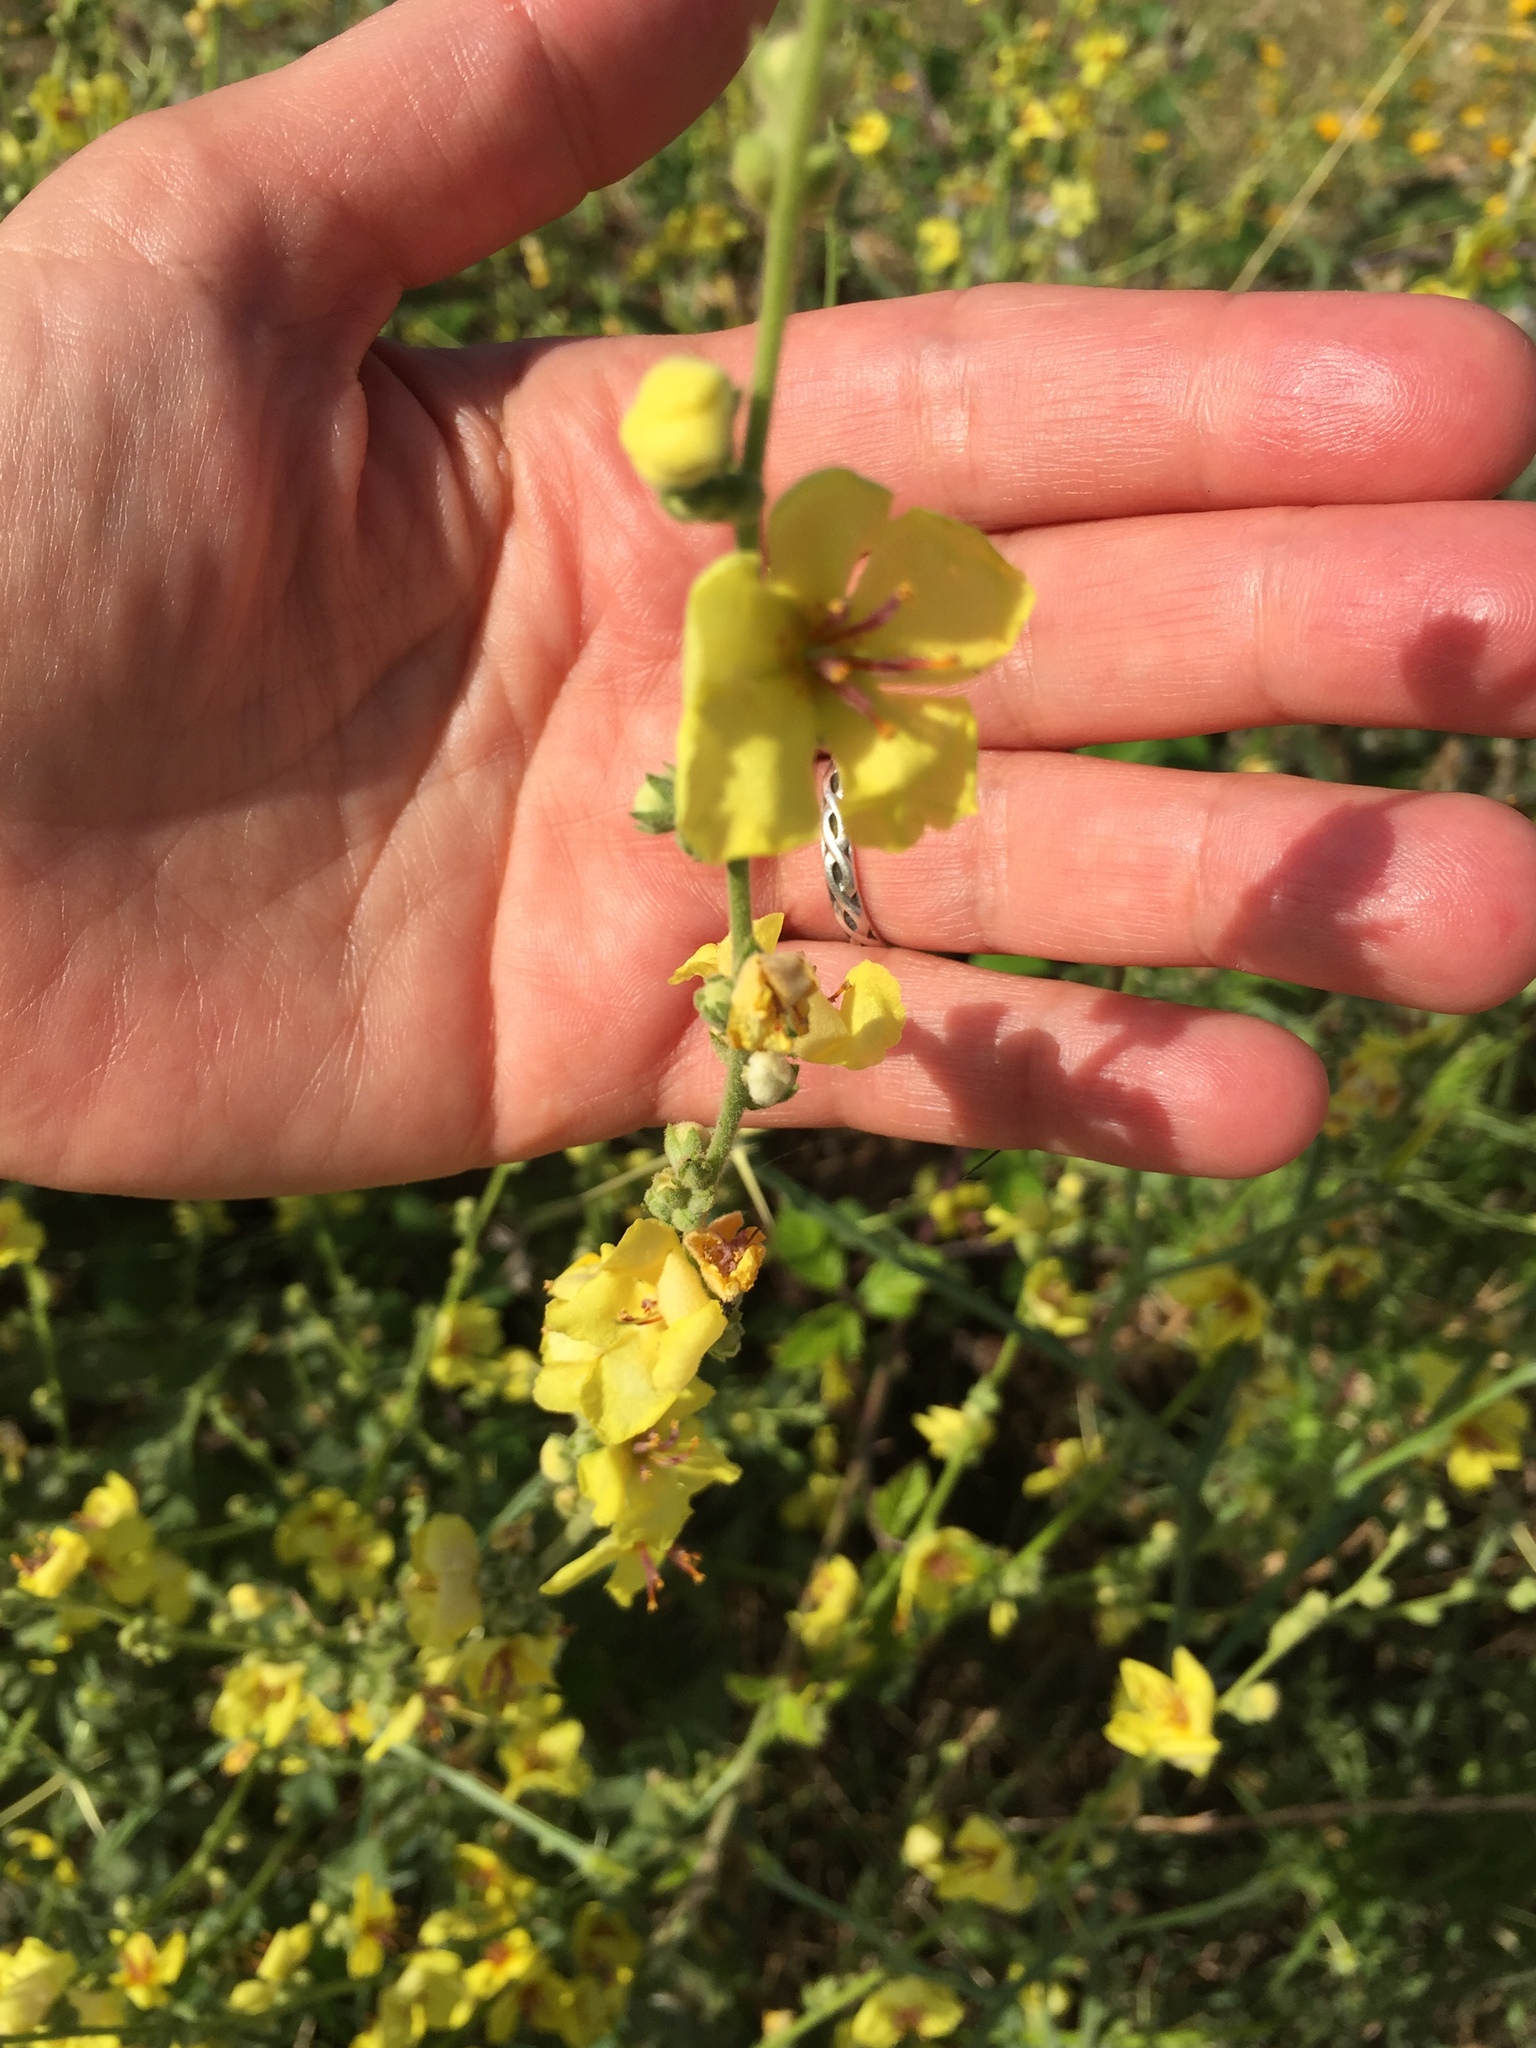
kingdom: Plantae
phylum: Tracheophyta
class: Magnoliopsida
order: Lamiales
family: Scrophulariaceae
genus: Verbascum
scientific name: Verbascum sinuatum
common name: Wavyleaf mullein
